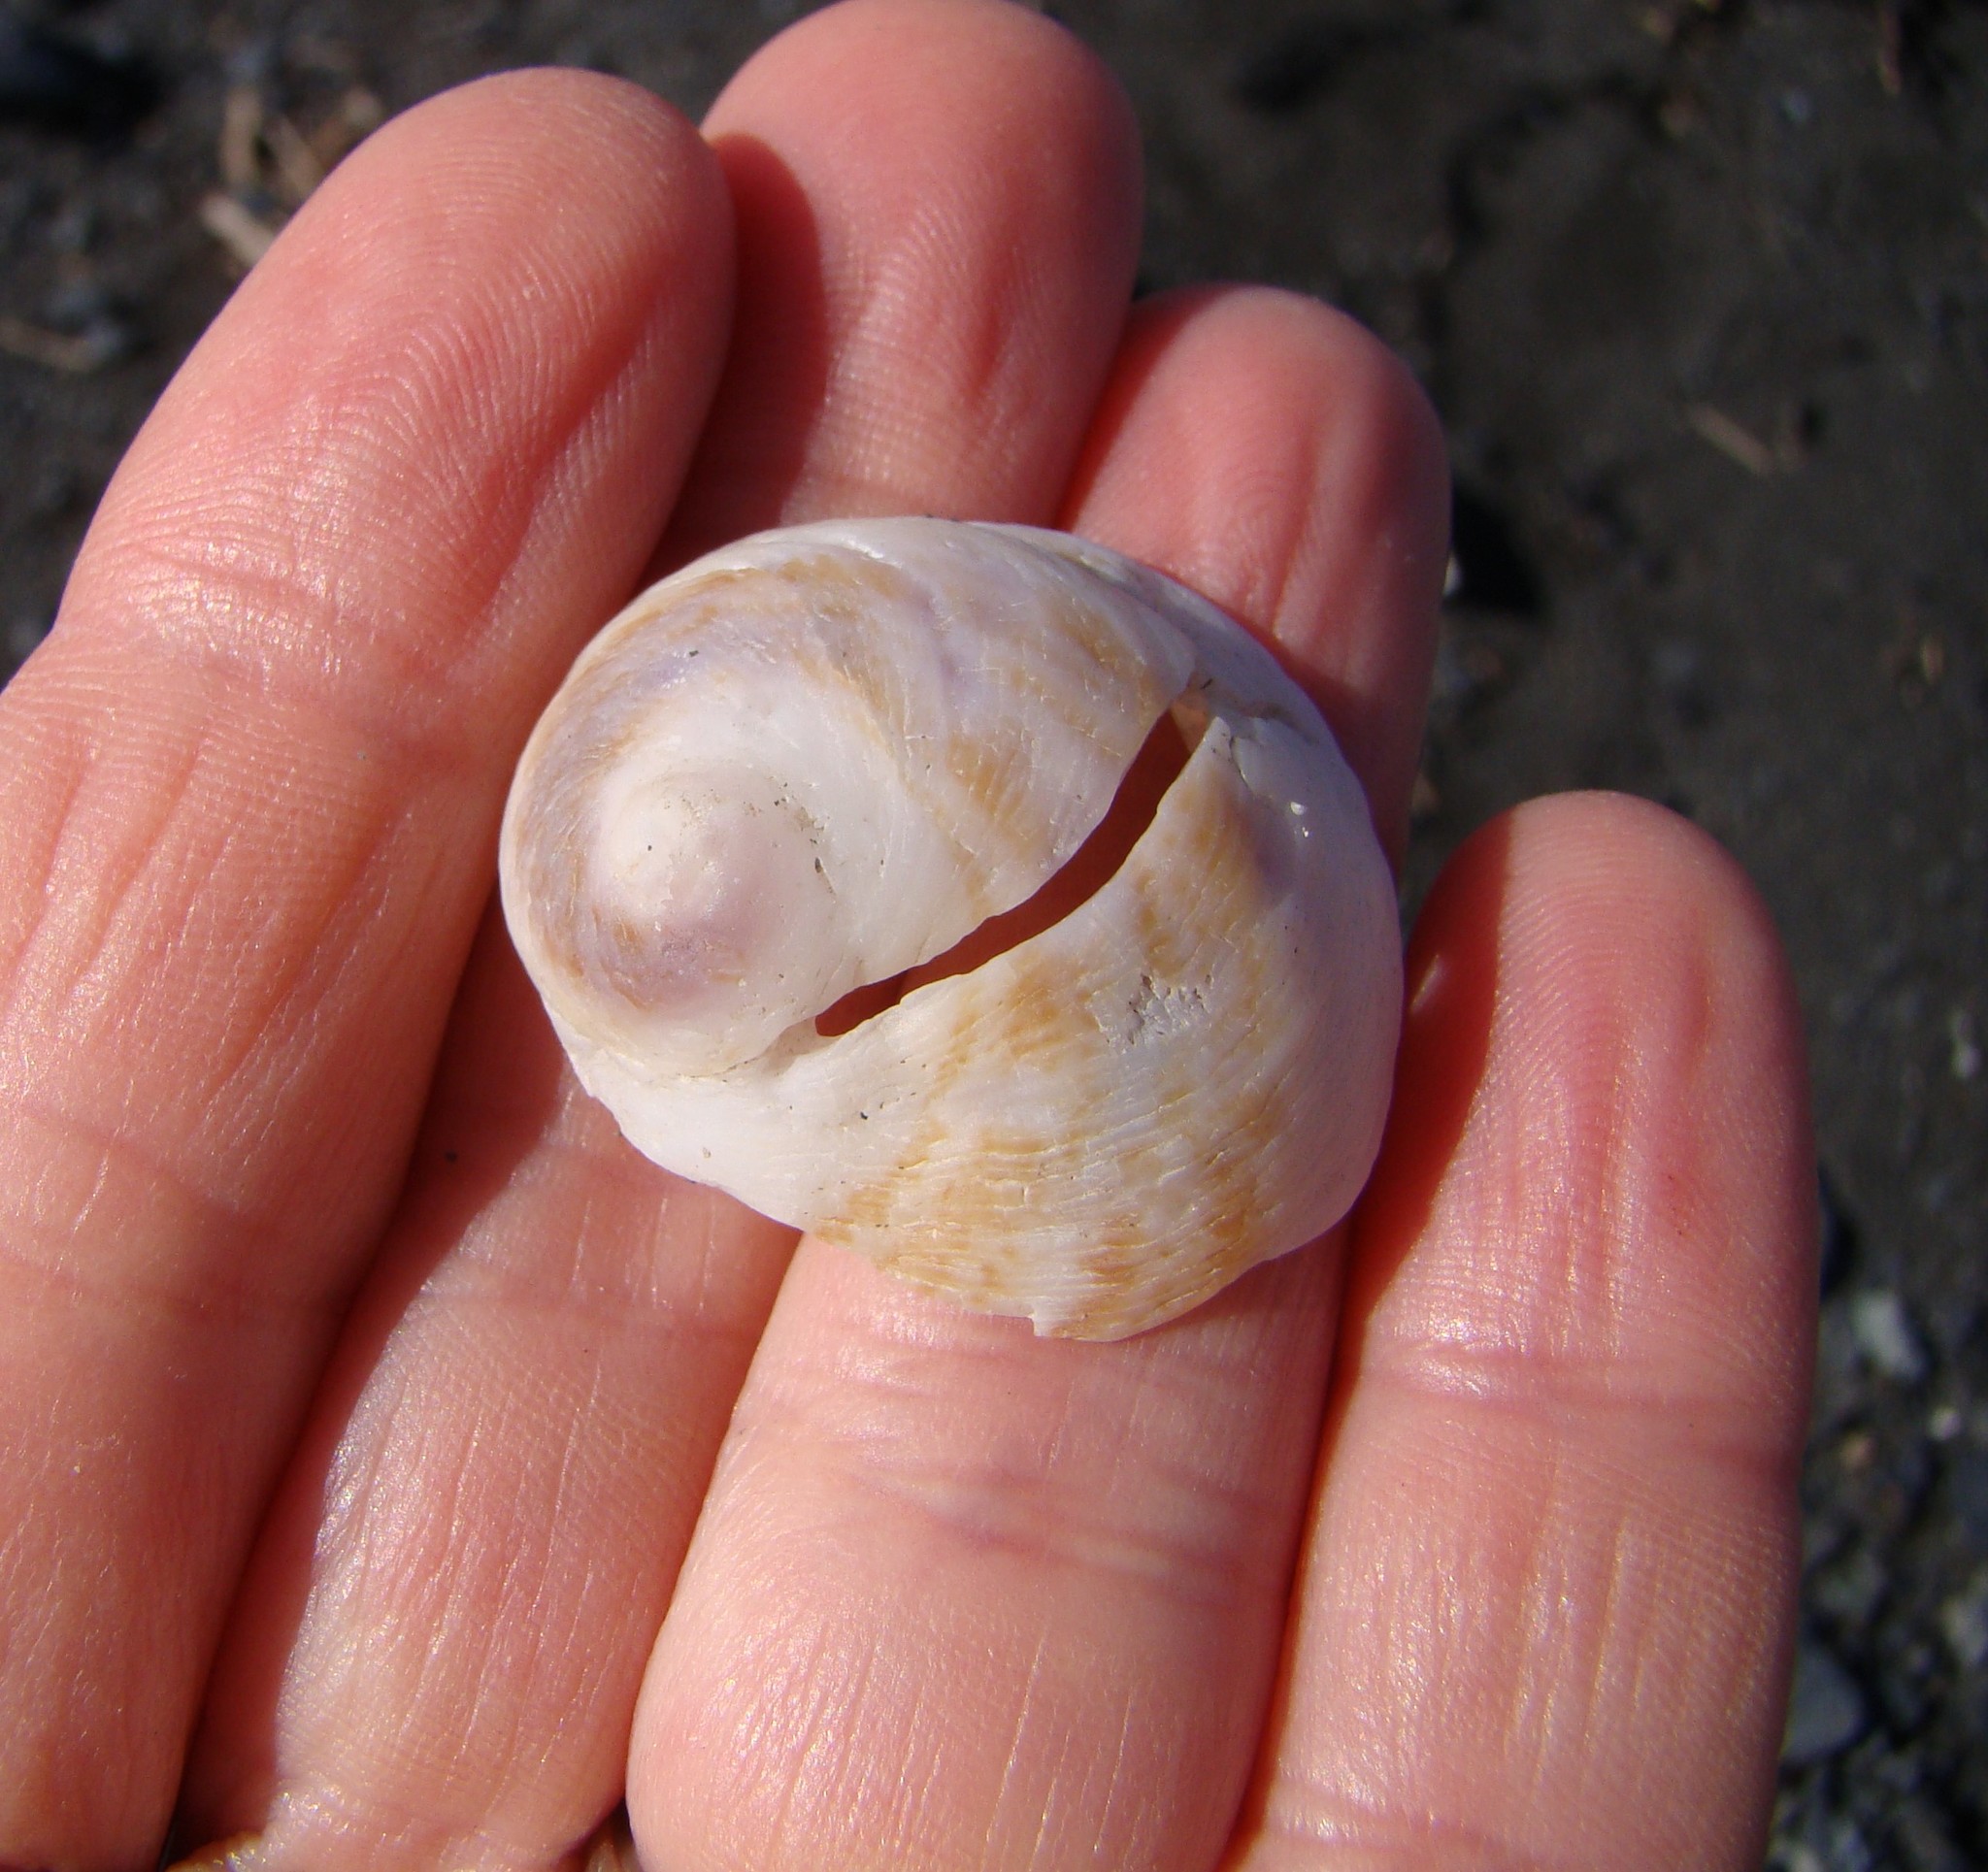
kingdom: Animalia
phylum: Mollusca
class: Gastropoda
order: Littorinimorpha
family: Calyptraeidae
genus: Sigapatella
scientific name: Sigapatella novaezelandiae
